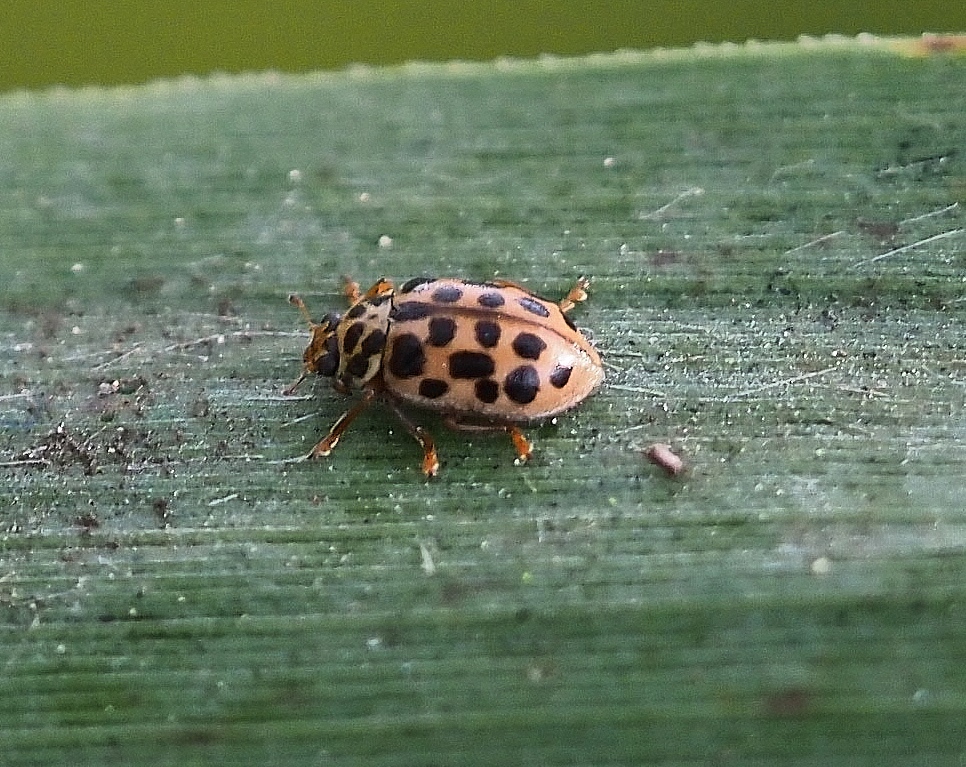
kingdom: Animalia
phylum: Arthropoda
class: Insecta
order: Coleoptera
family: Coccinellidae
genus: Anisosticta
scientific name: Anisosticta novemdecimpunctata
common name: Water ladybird
